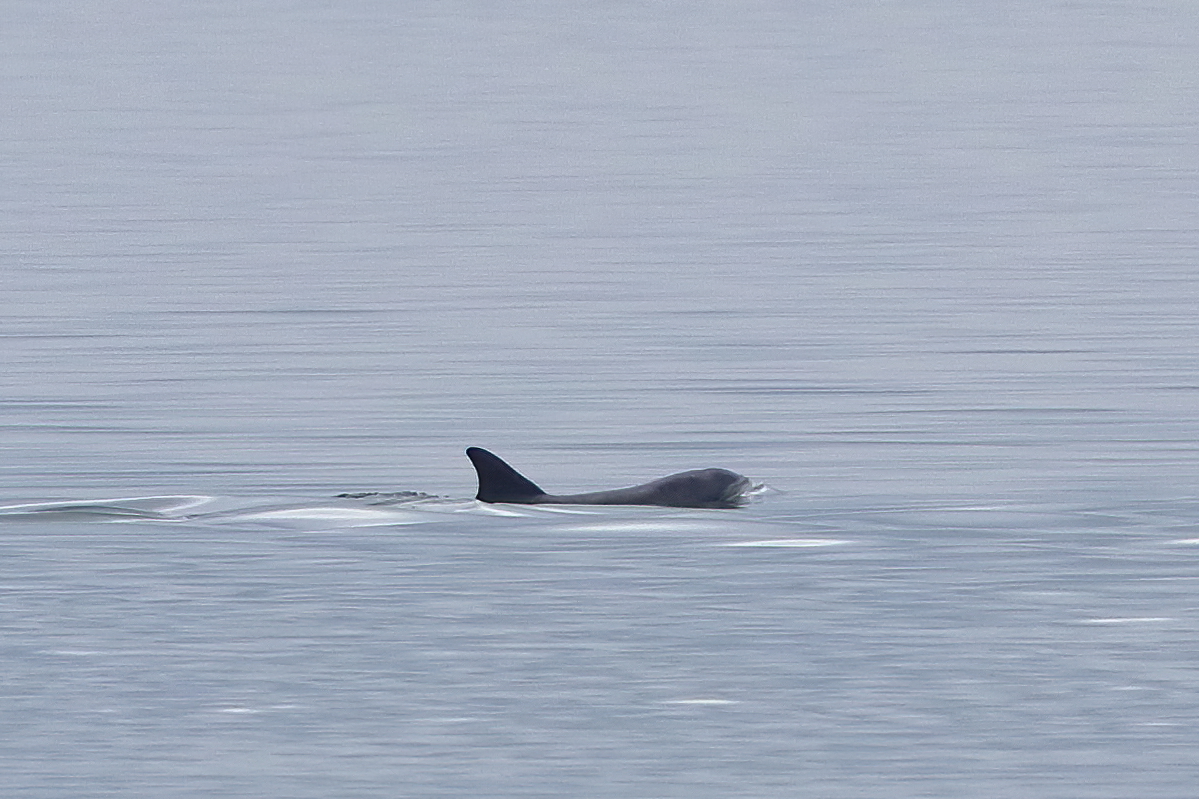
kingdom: Animalia
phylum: Chordata
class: Mammalia
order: Cetacea
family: Delphinidae
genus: Tursiops
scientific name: Tursiops truncatus
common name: Bottlenose dolphin
